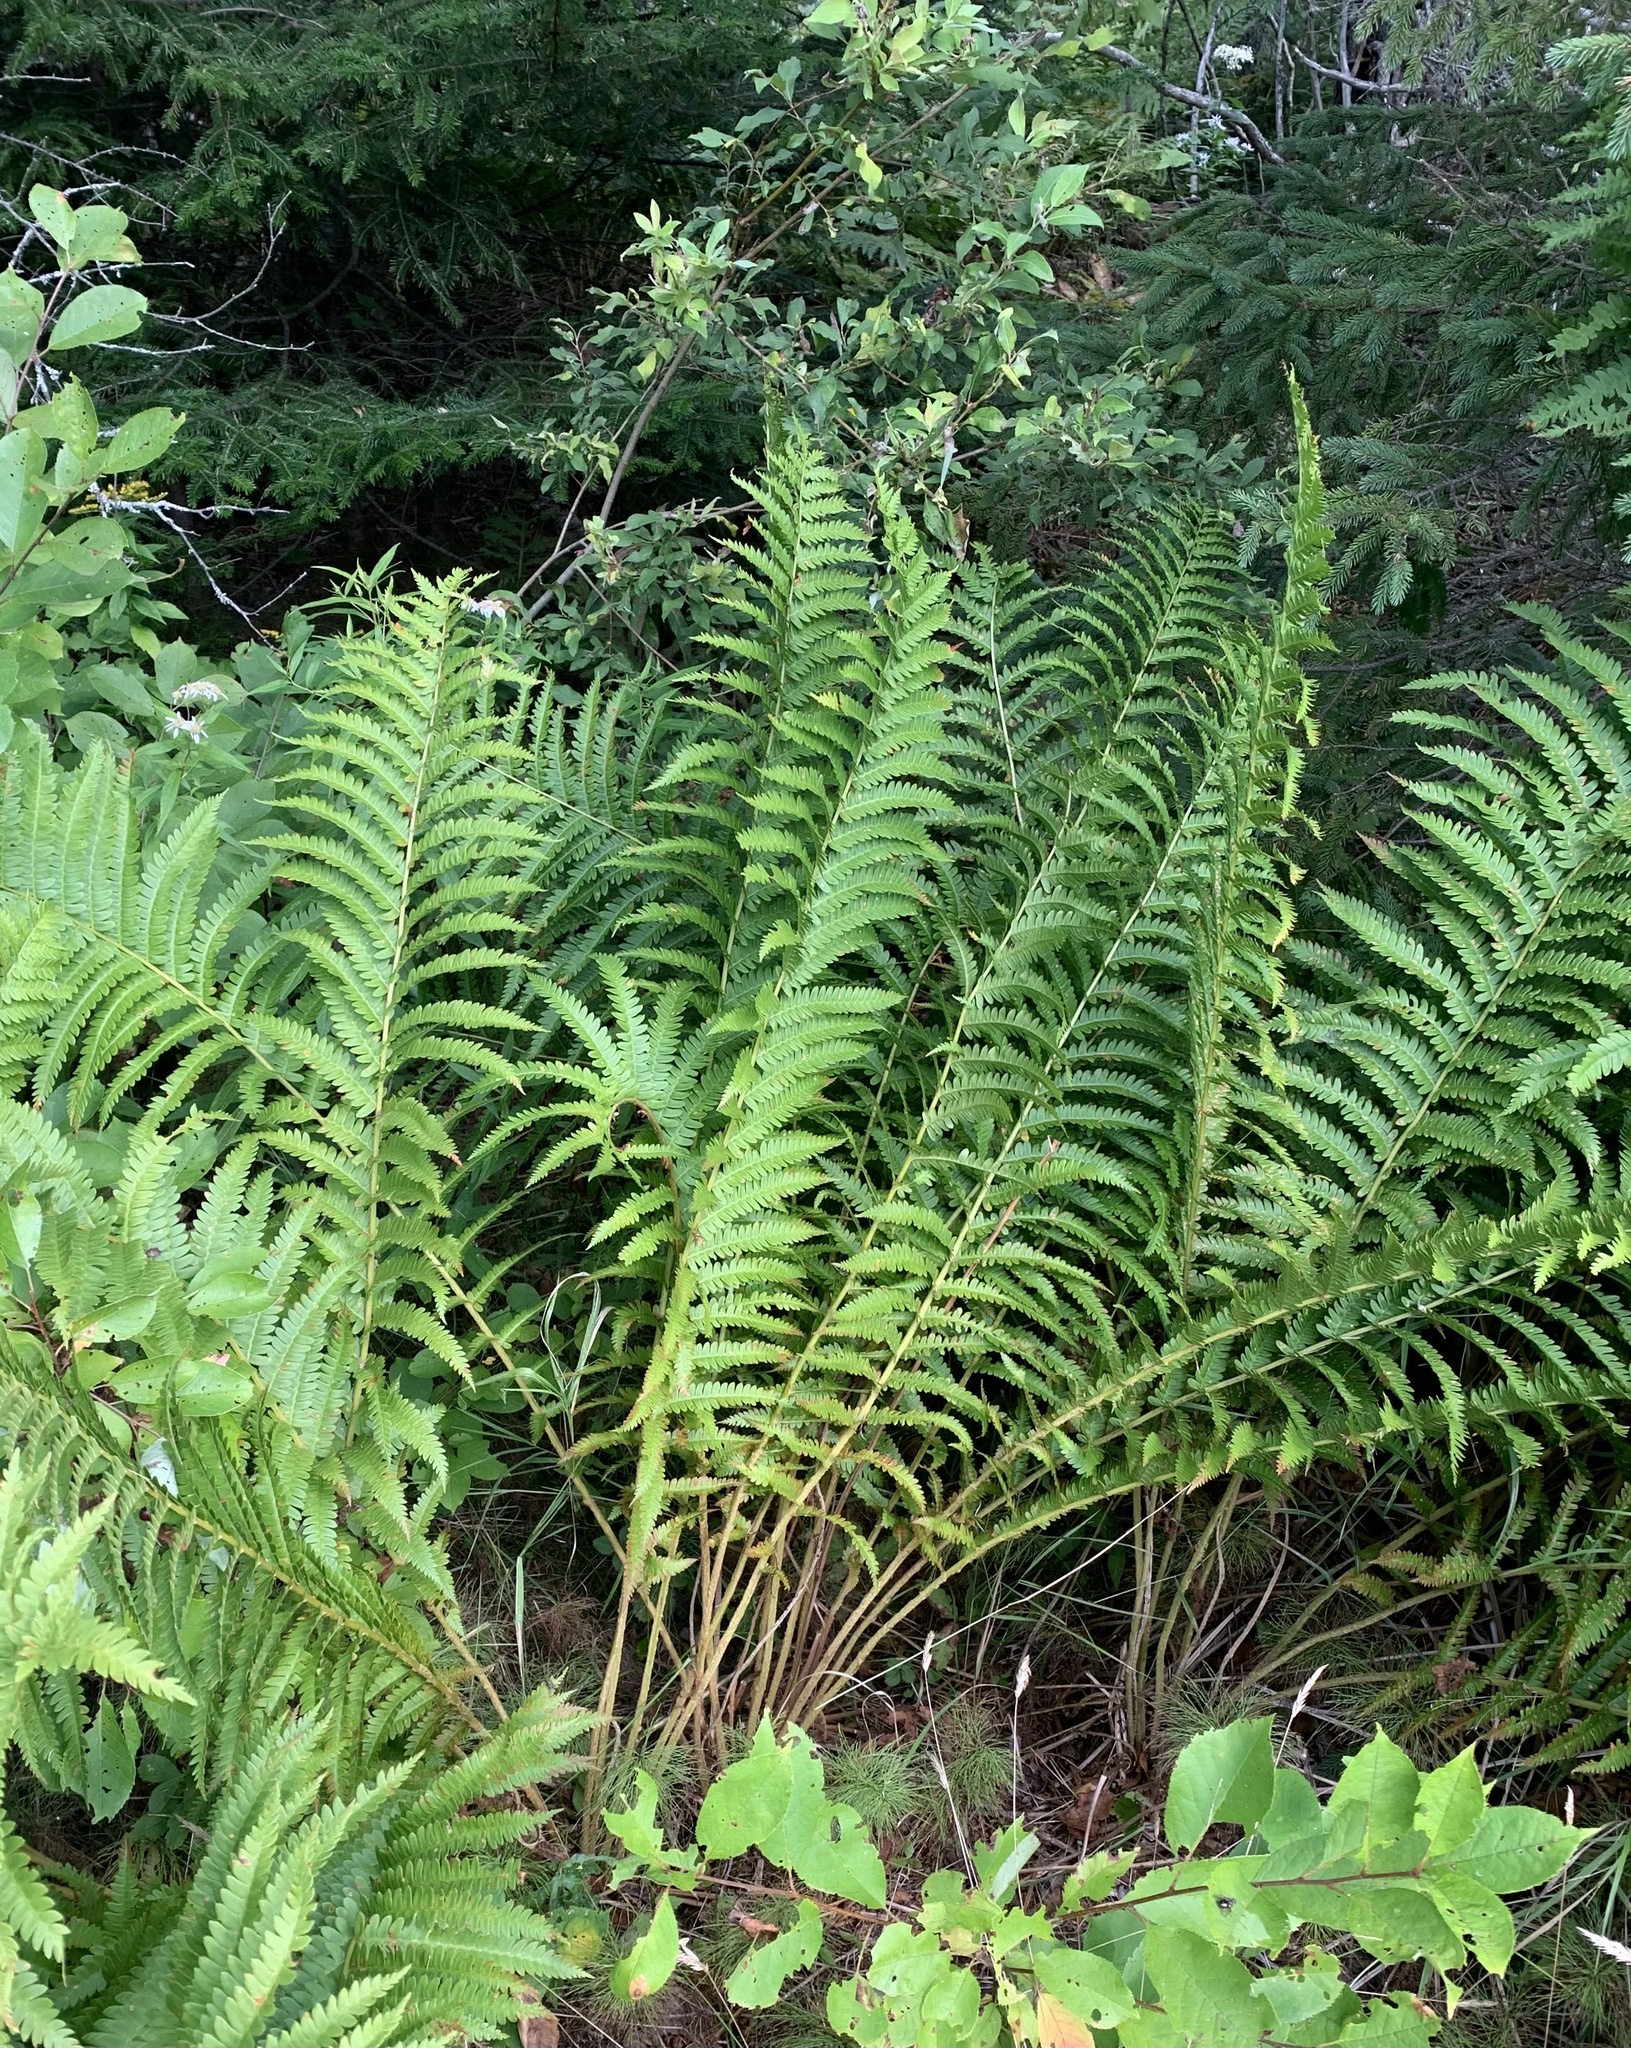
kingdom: Plantae
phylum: Tracheophyta
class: Polypodiopsida
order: Osmundales
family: Osmundaceae
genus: Osmundastrum
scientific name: Osmundastrum cinnamomeum
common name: Cinnamon fern
